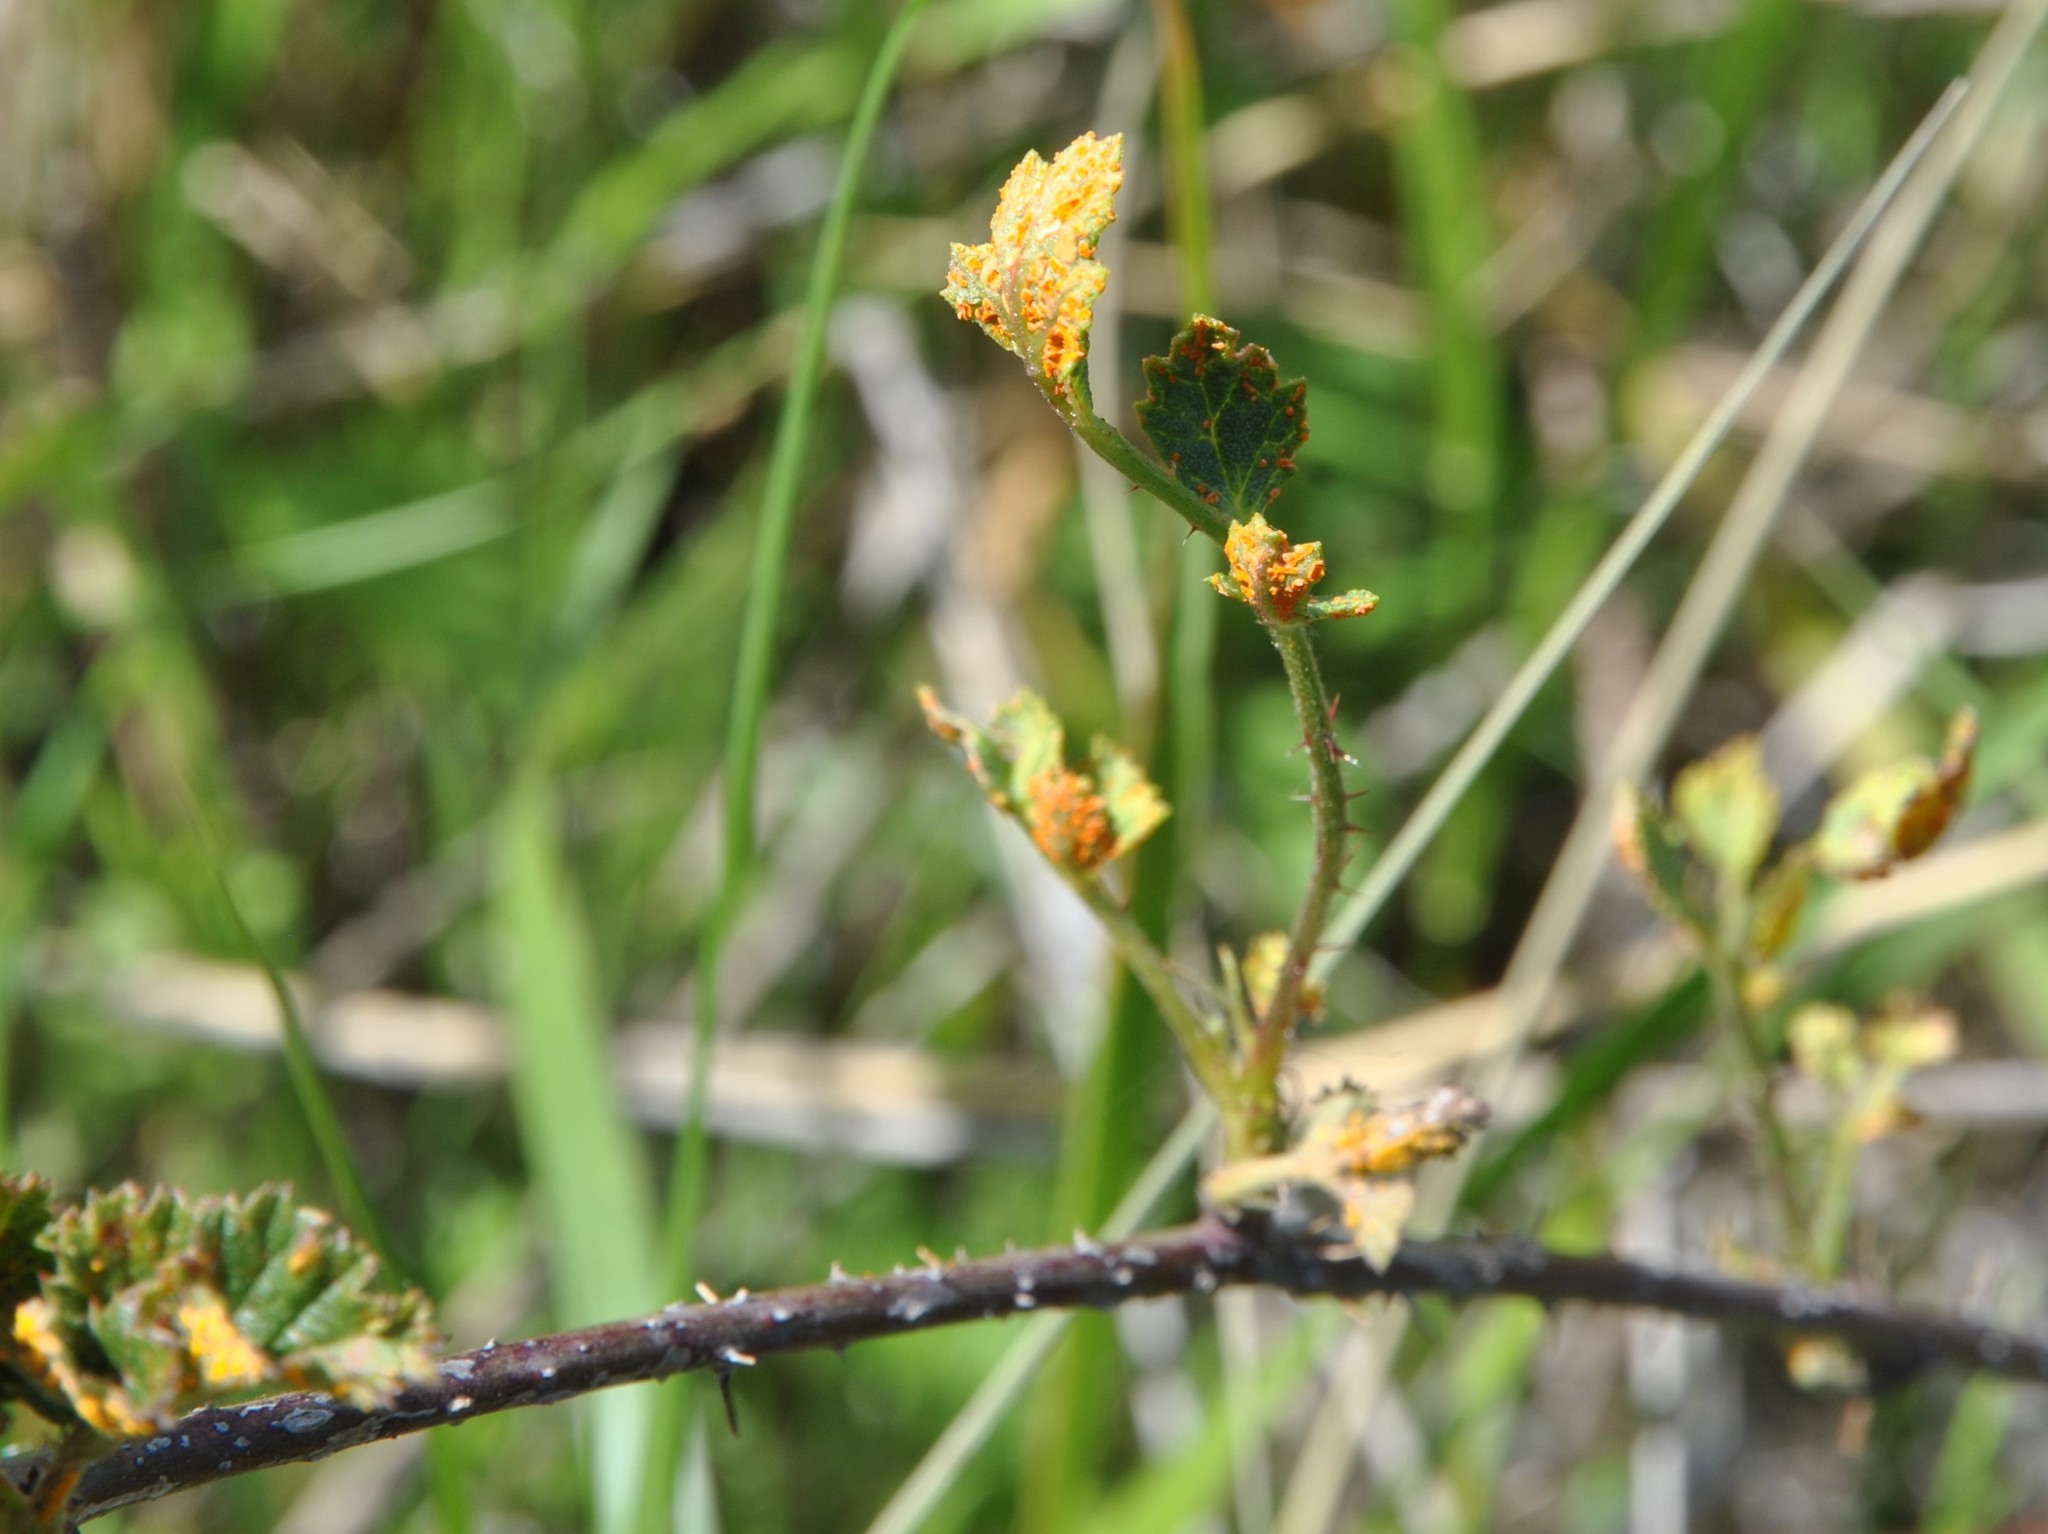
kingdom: Fungi
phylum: Basidiomycota
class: Pucciniomycetes
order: Pucciniales
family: Phragmidiaceae
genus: Arthuriomyces
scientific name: Arthuriomyces peckianus
